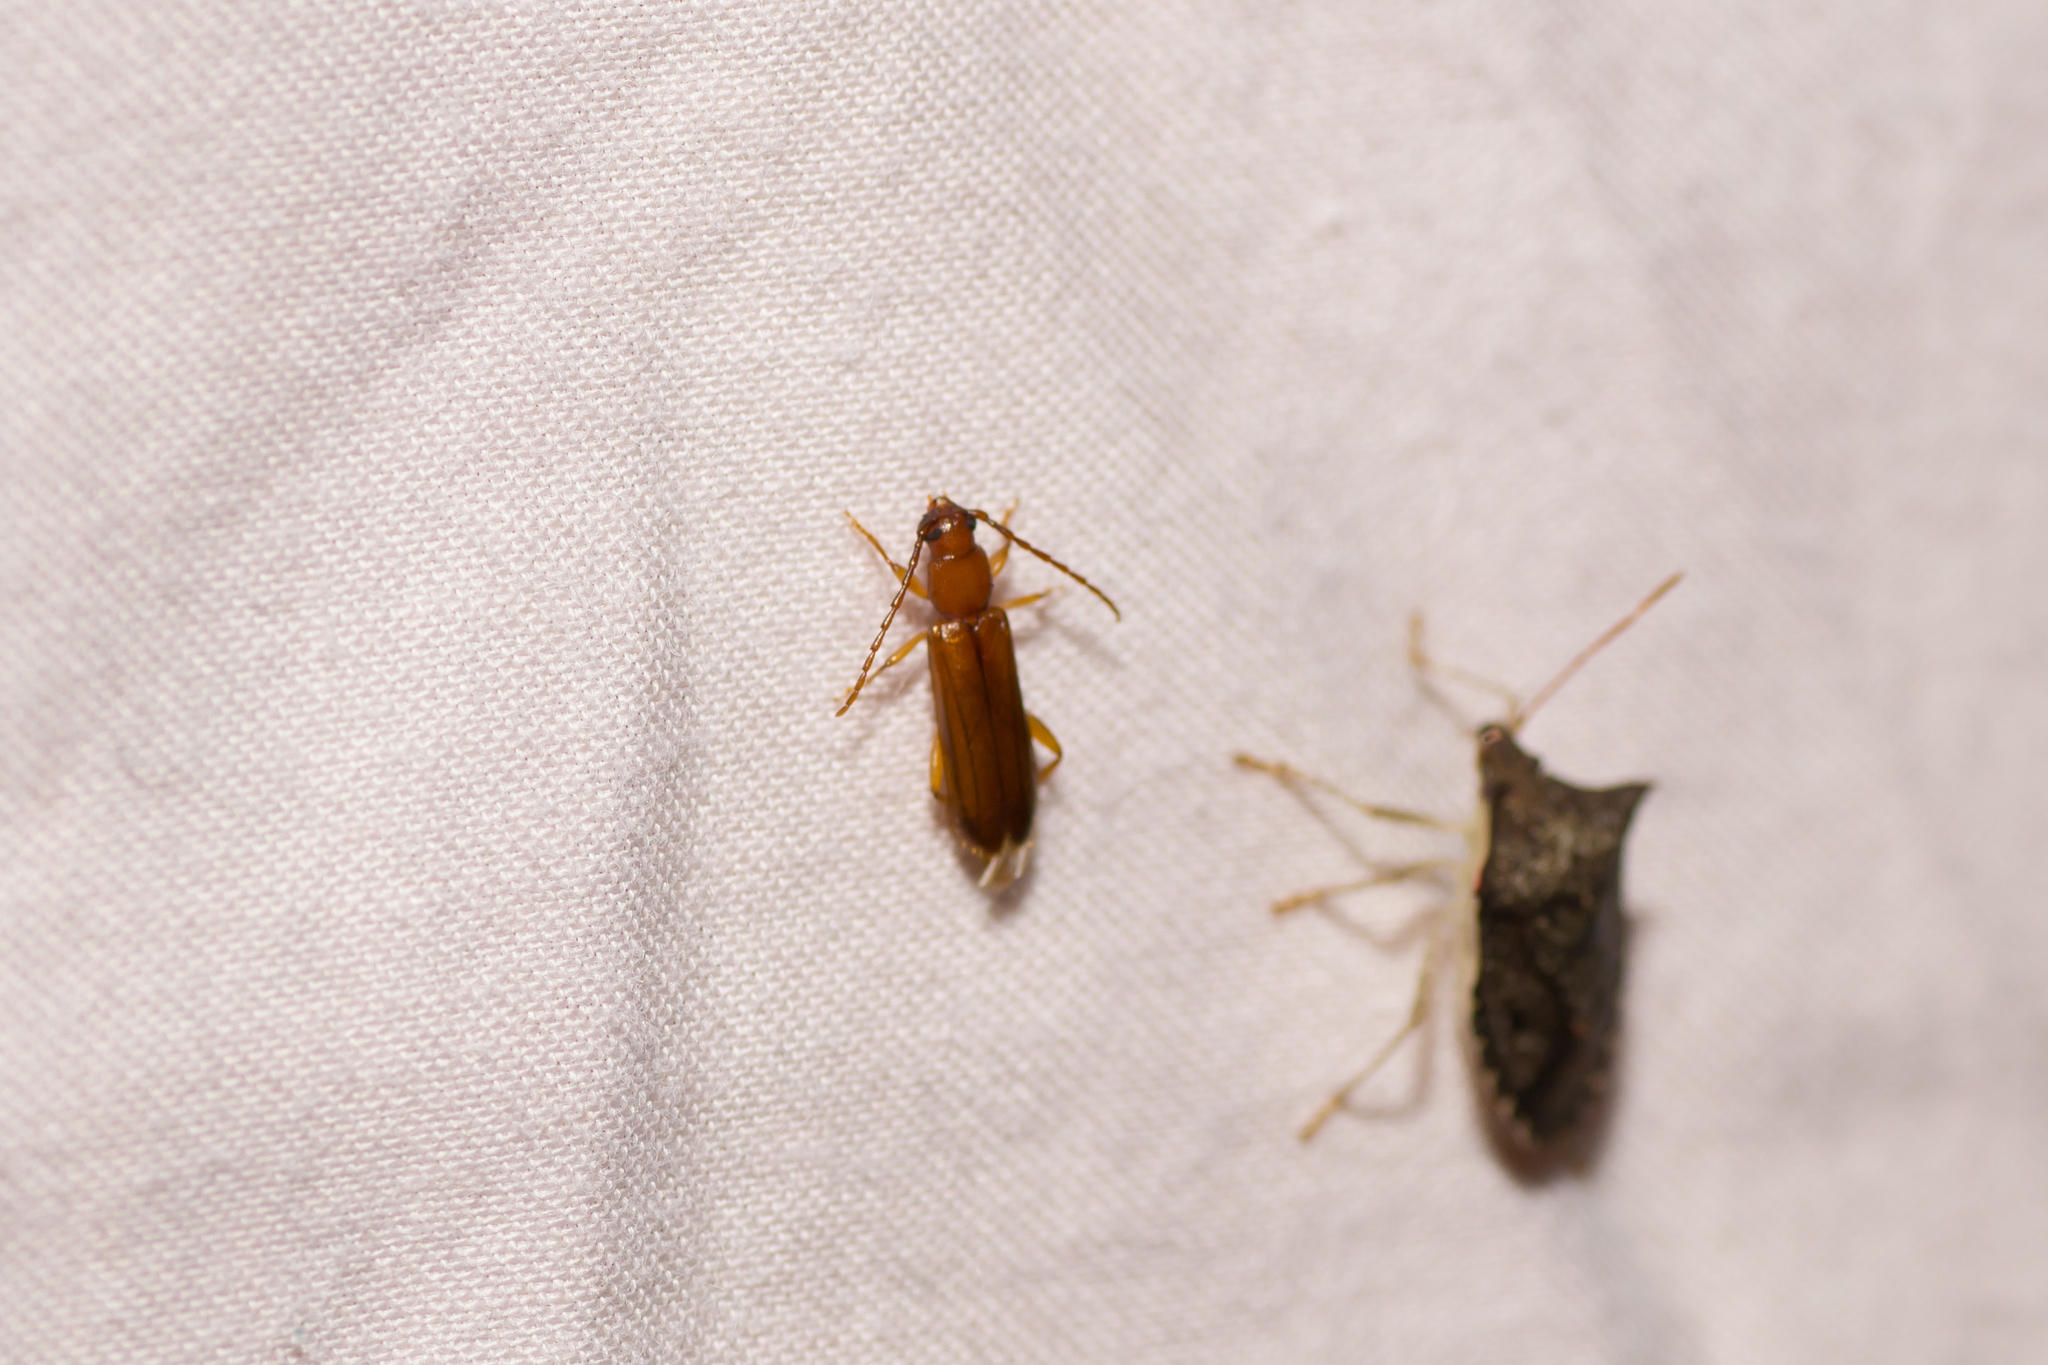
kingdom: Animalia
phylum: Arthropoda
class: Insecta
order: Coleoptera
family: Cerambycidae
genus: Smodicum
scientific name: Smodicum cucujiforme
